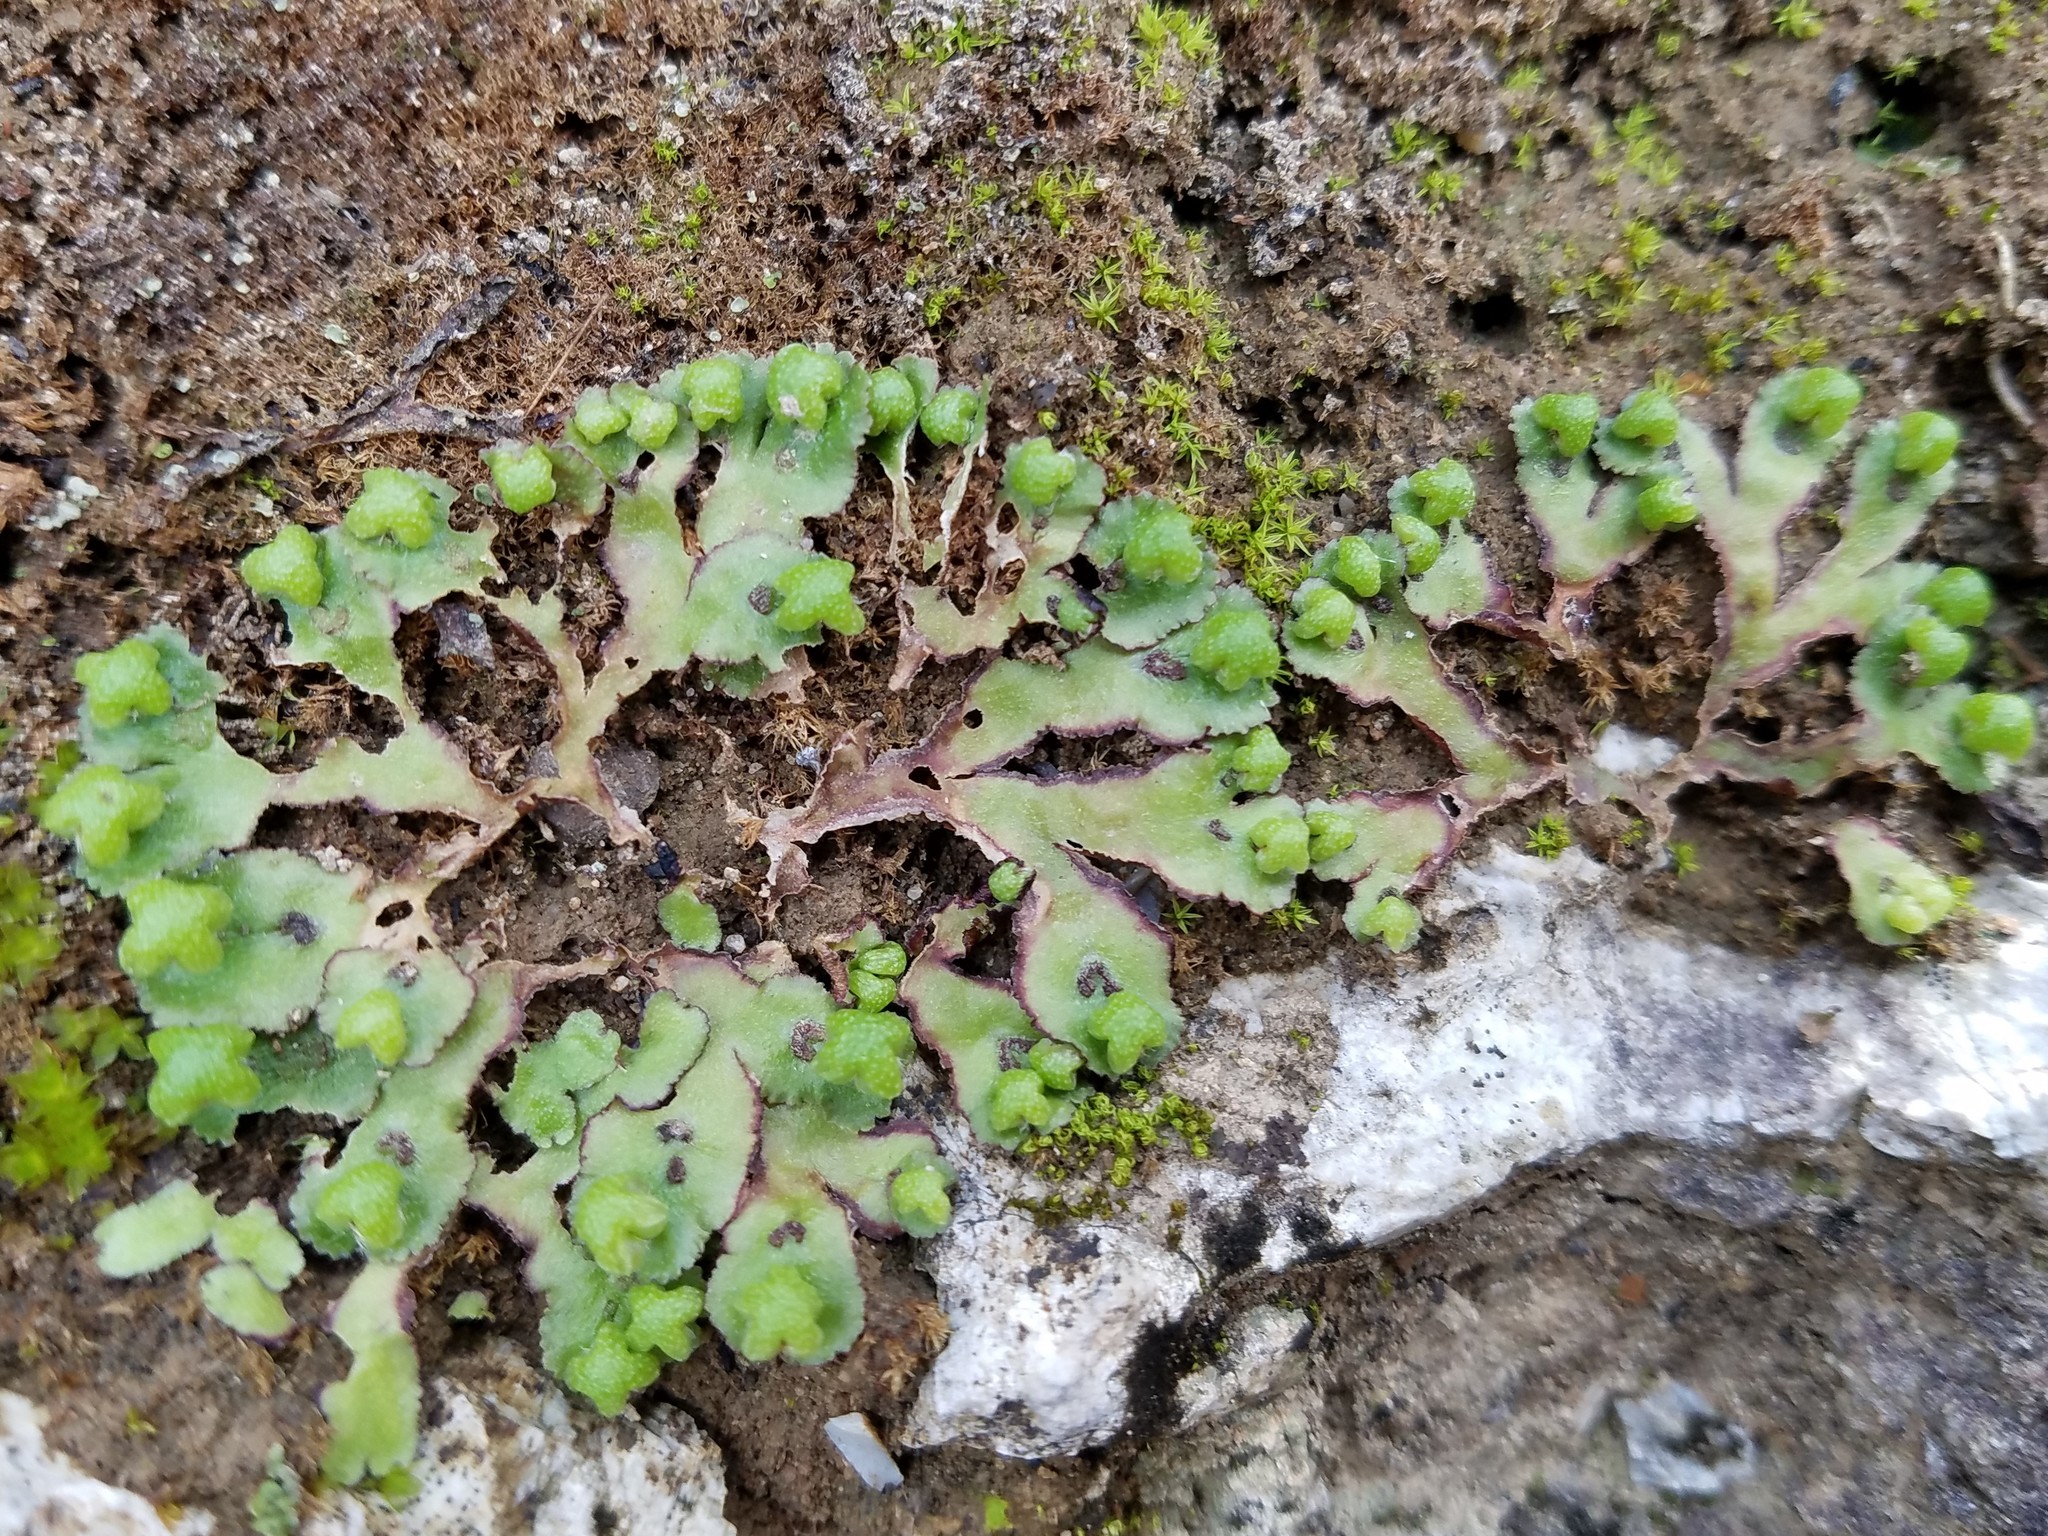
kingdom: Plantae
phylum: Marchantiophyta
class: Marchantiopsida
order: Marchantiales
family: Aytoniaceae
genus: Reboulia
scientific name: Reboulia hemisphaerica
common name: Purple-margined liverwort
